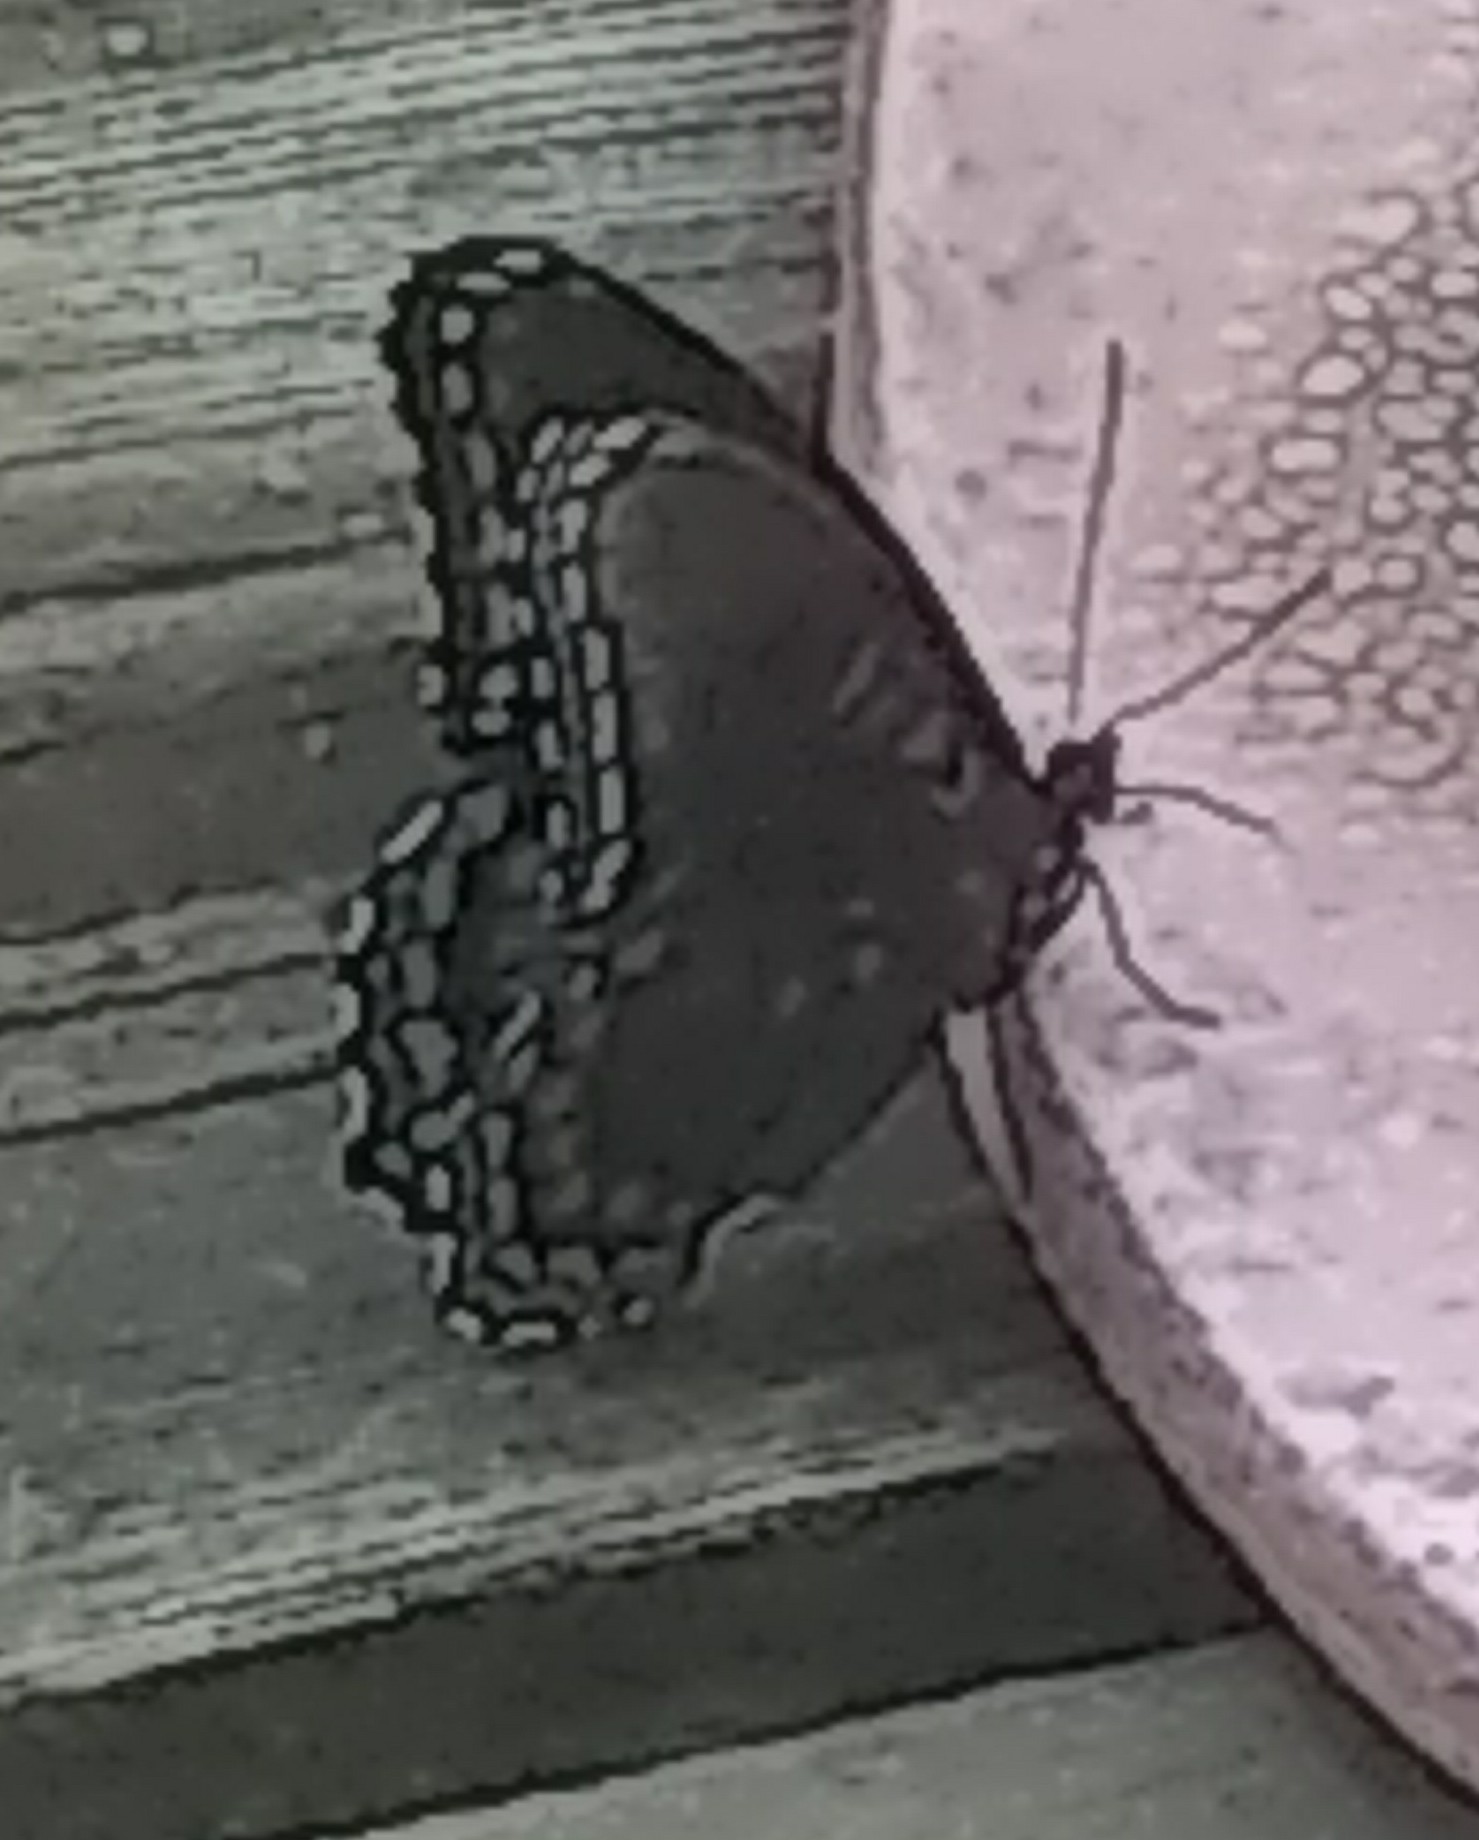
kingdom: Animalia
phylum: Arthropoda
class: Insecta
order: Lepidoptera
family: Nymphalidae
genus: Limenitis
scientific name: Limenitis astyanax
